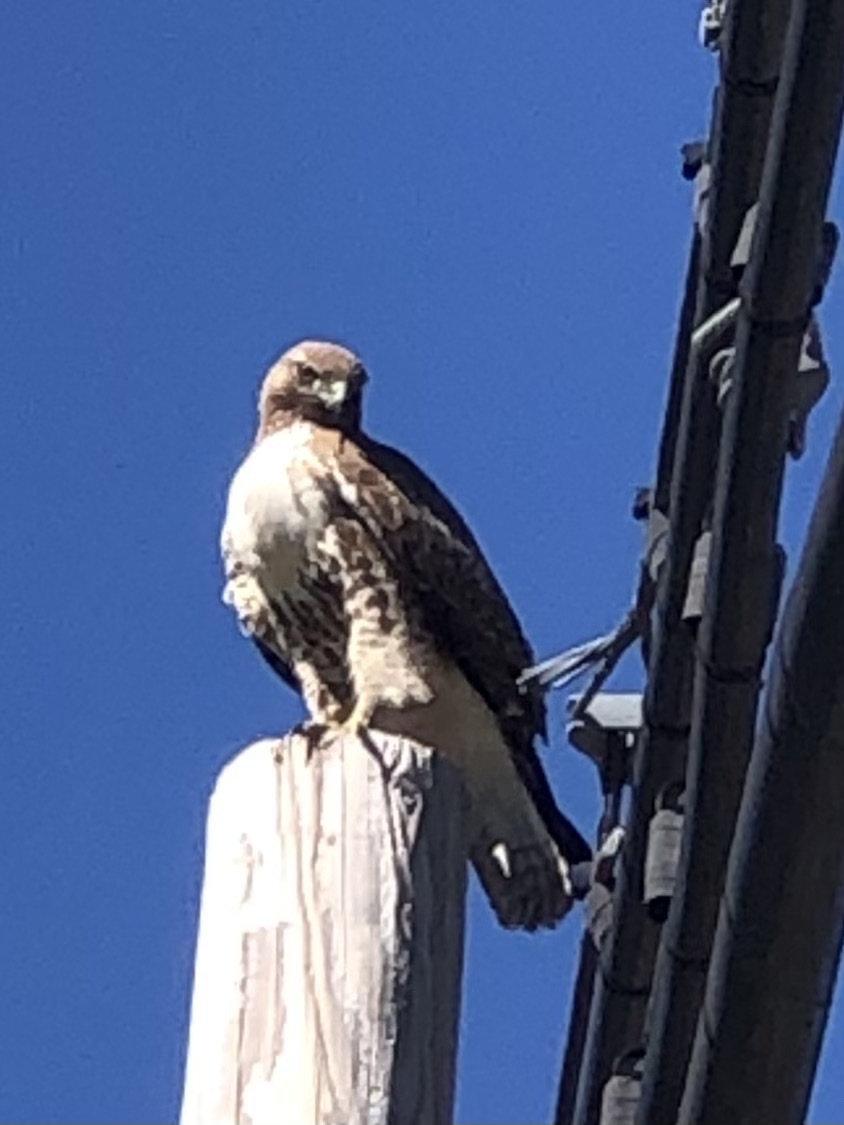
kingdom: Animalia
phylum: Chordata
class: Aves
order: Accipitriformes
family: Accipitridae
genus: Buteo
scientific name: Buteo jamaicensis
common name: Red-tailed hawk
